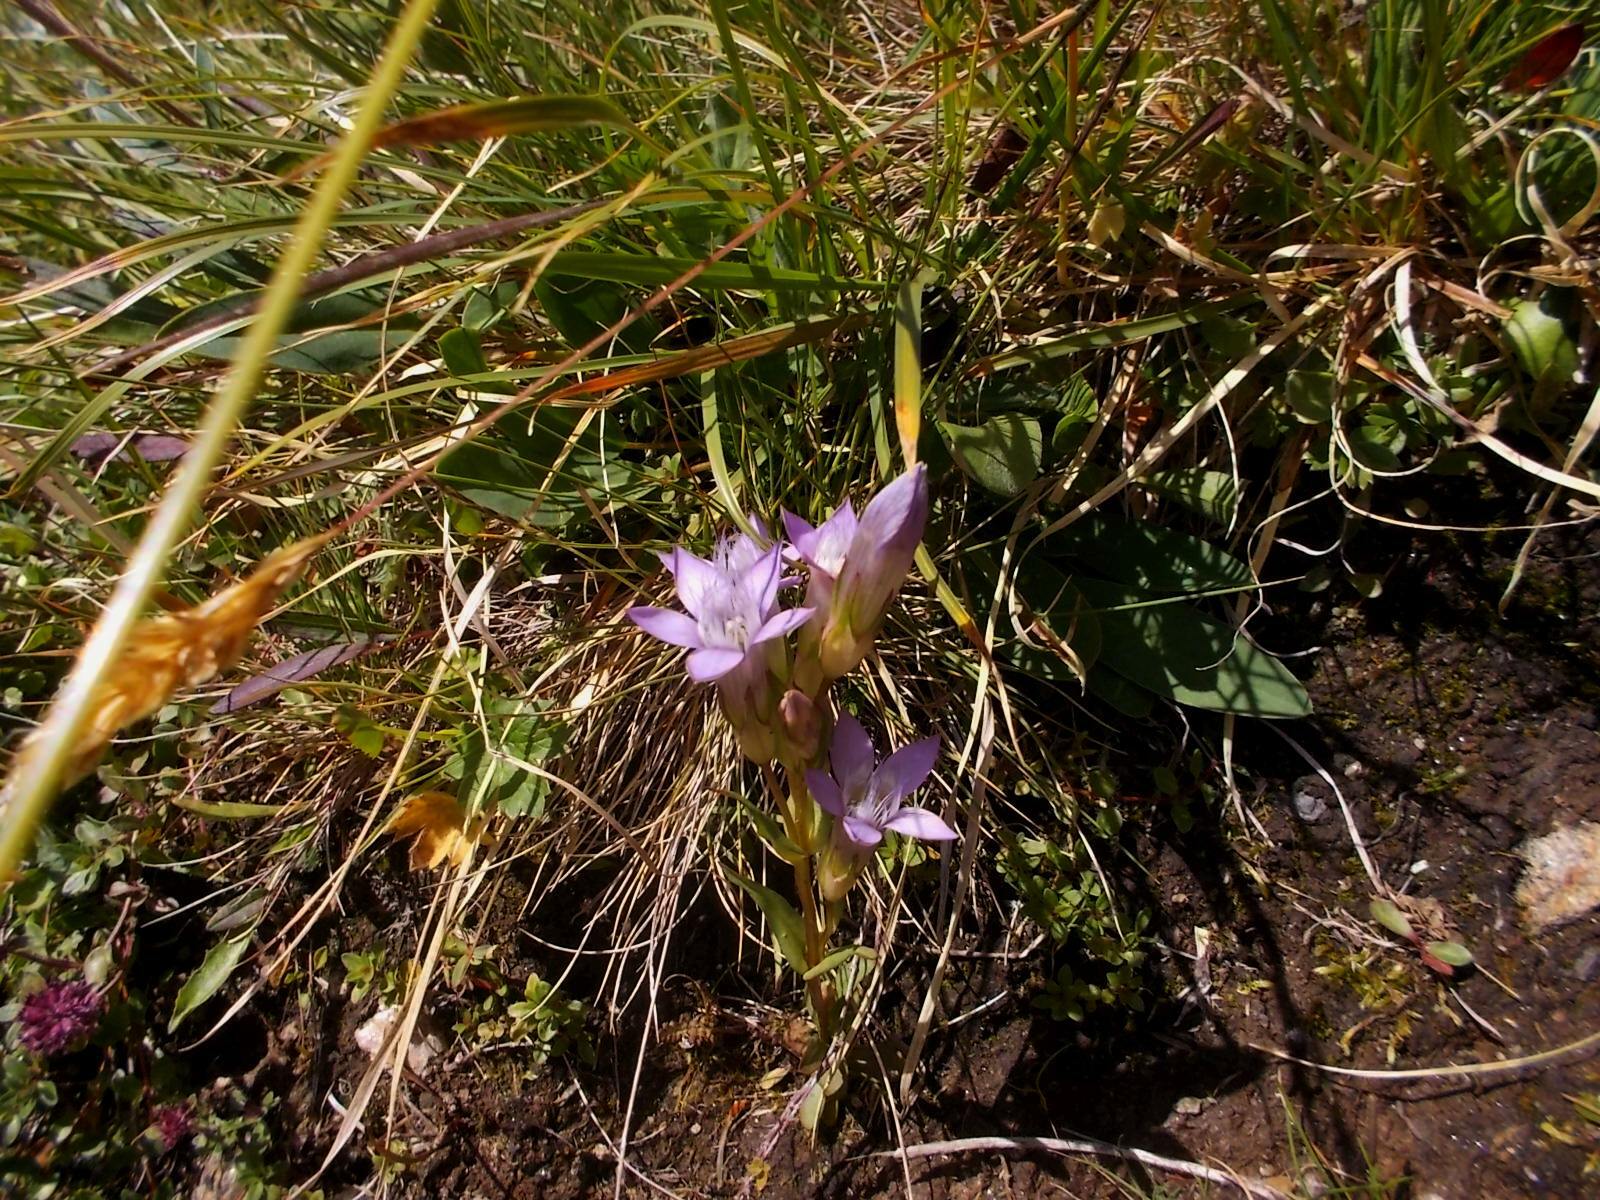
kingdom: Plantae
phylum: Tracheophyta
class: Magnoliopsida
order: Gentianales
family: Gentianaceae
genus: Gentianella
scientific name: Gentianella
